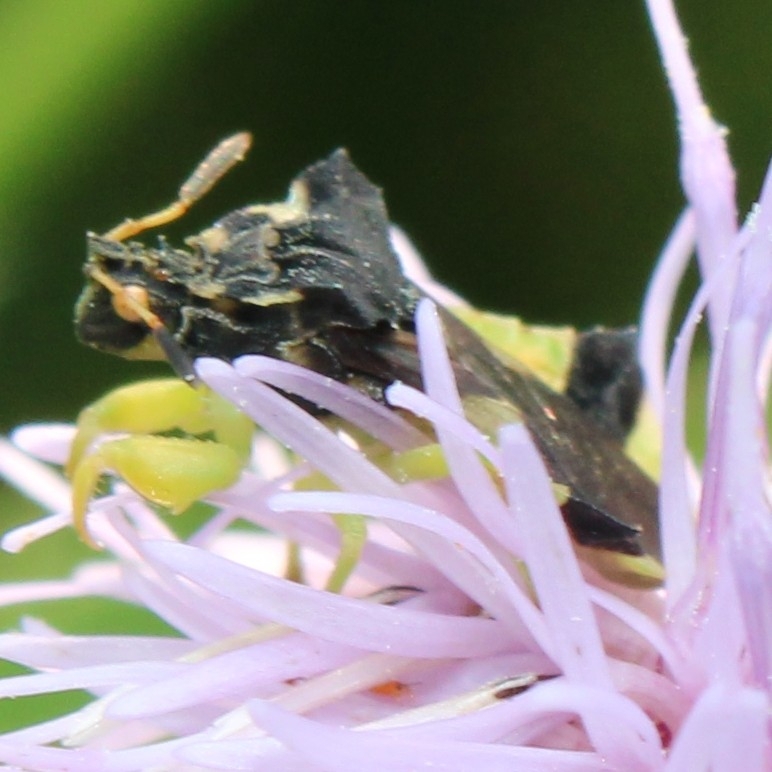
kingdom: Animalia
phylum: Arthropoda
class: Insecta
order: Hemiptera
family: Reduviidae
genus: Phymata
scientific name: Phymata americana
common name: Jagged ambush bug
